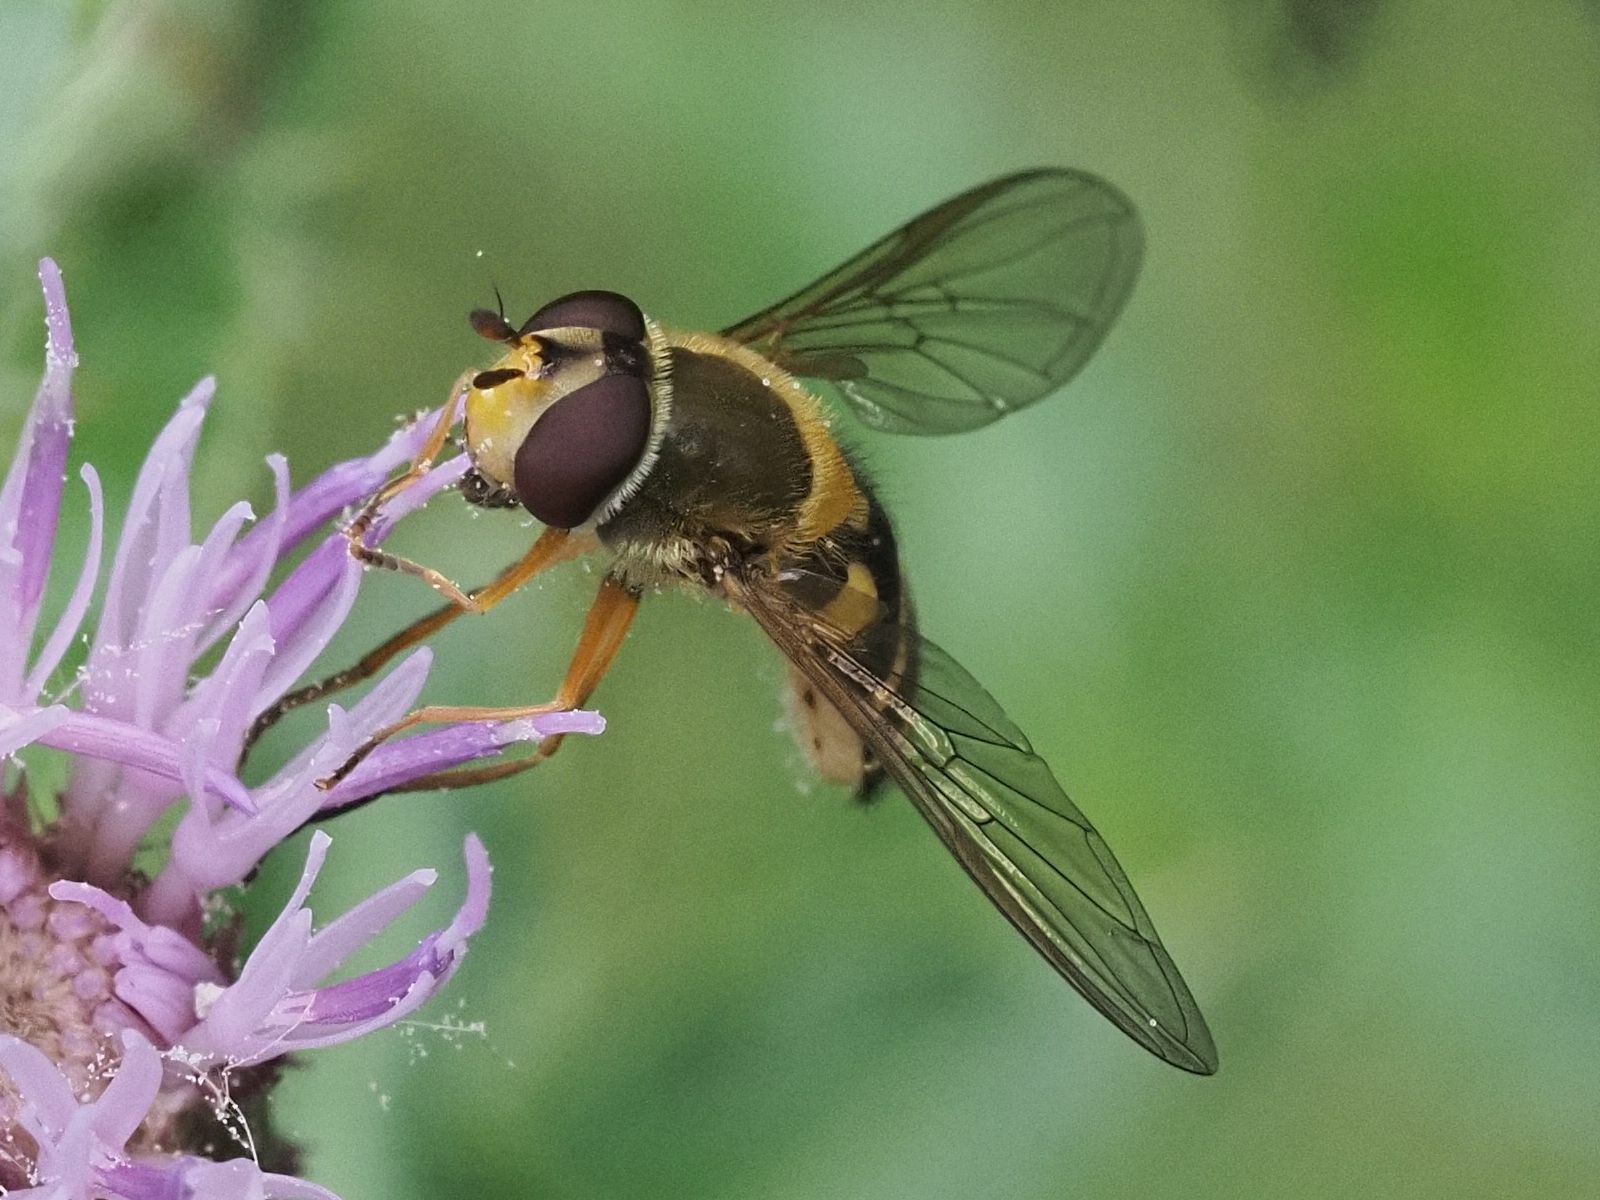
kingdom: Animalia
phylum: Arthropoda
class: Insecta
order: Diptera
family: Syrphidae
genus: Syrphus
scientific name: Syrphus ribesii
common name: Common flower fly
